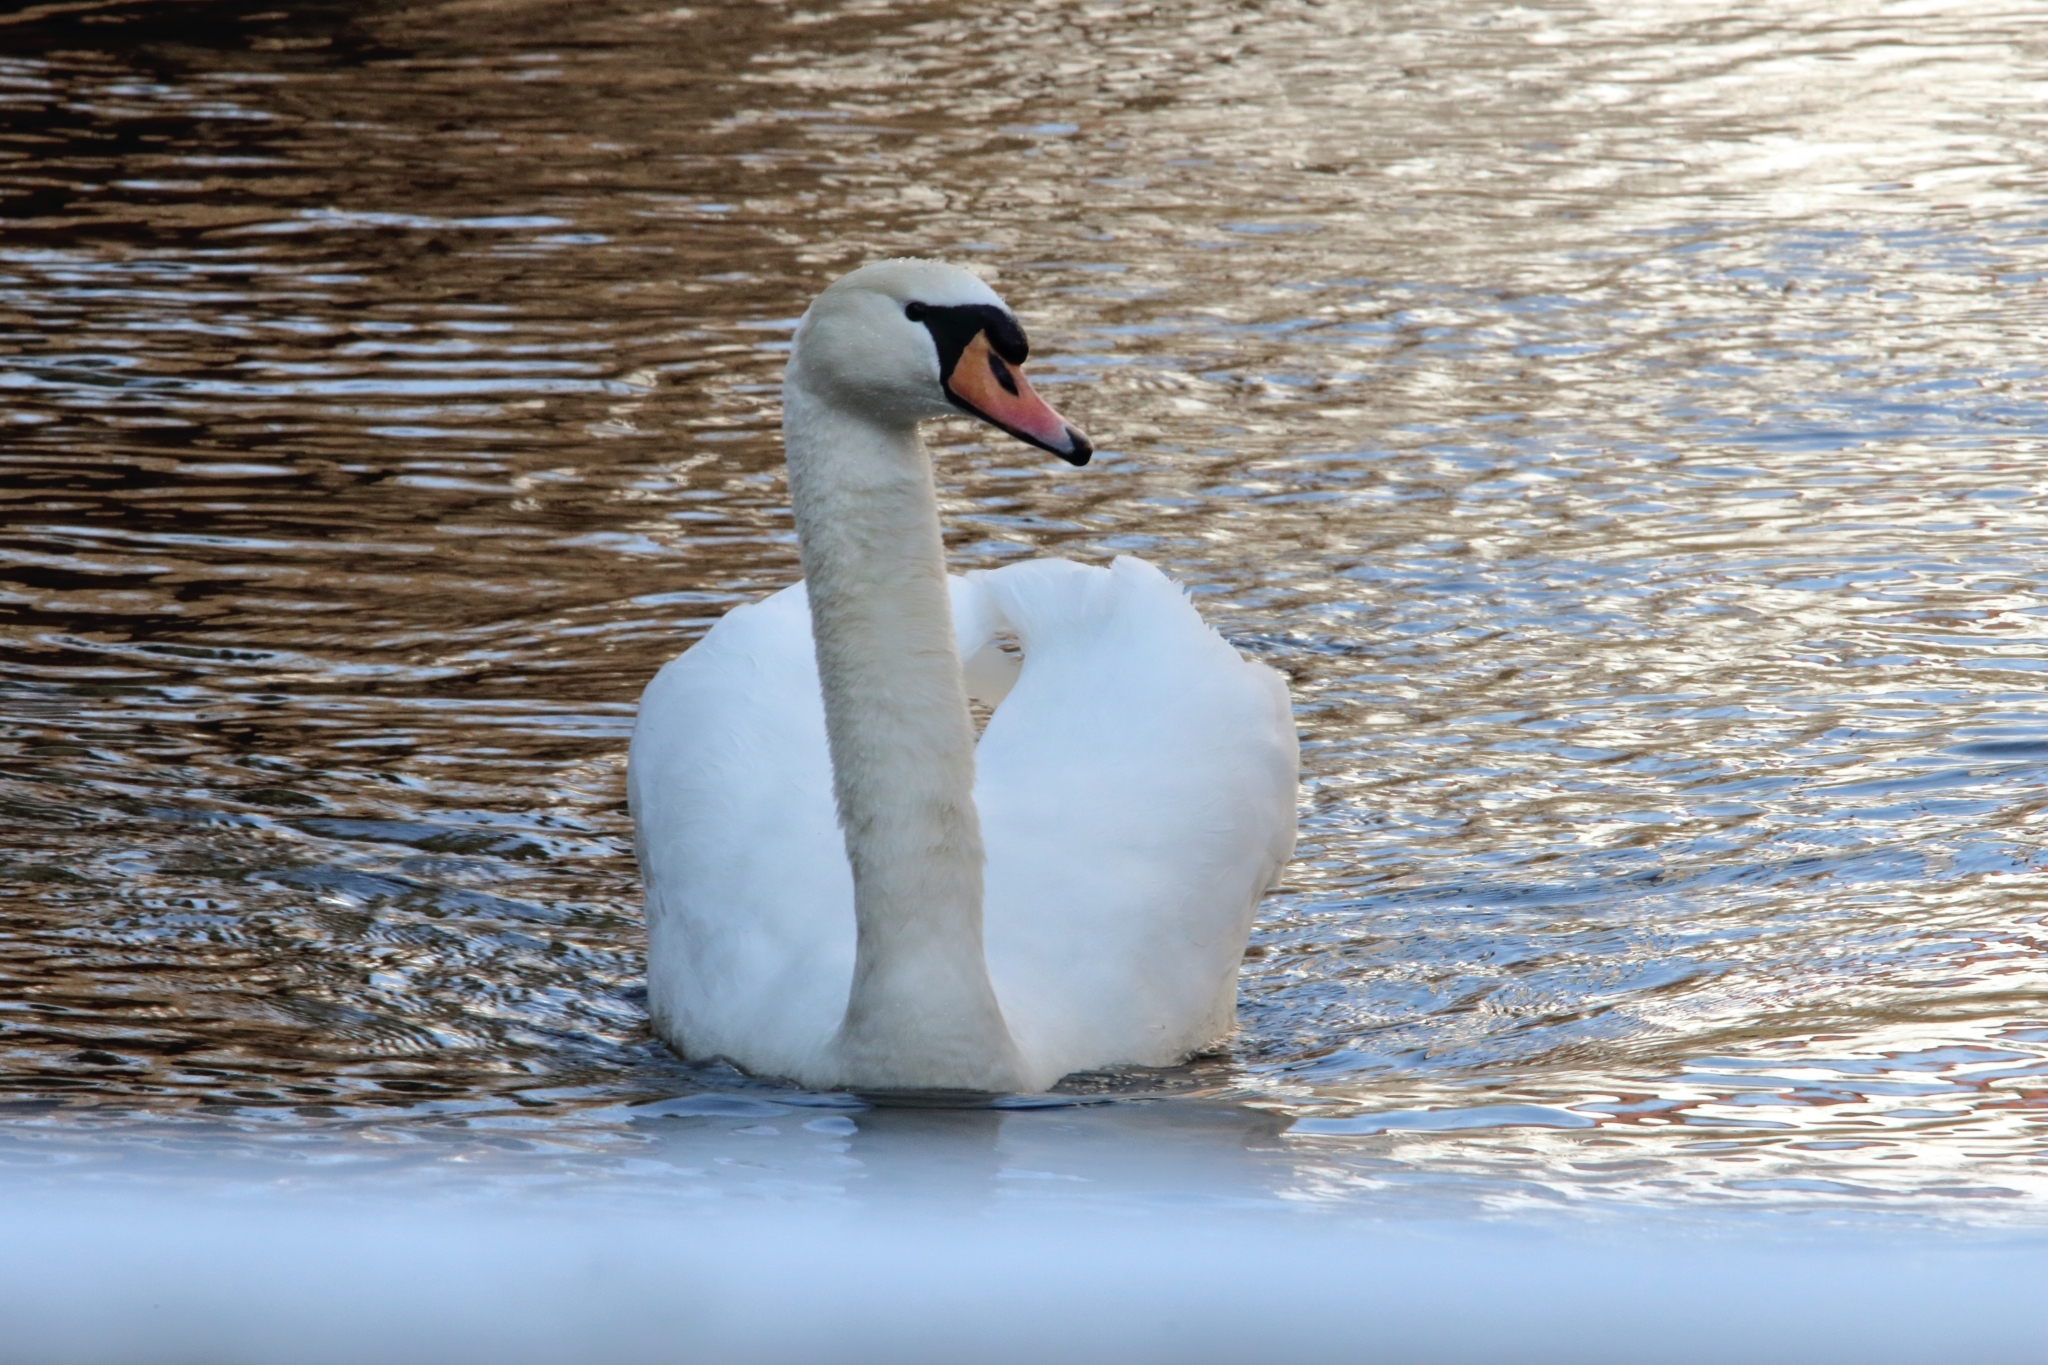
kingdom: Animalia
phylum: Chordata
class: Aves
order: Anseriformes
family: Anatidae
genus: Cygnus
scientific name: Cygnus olor
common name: Mute swan
